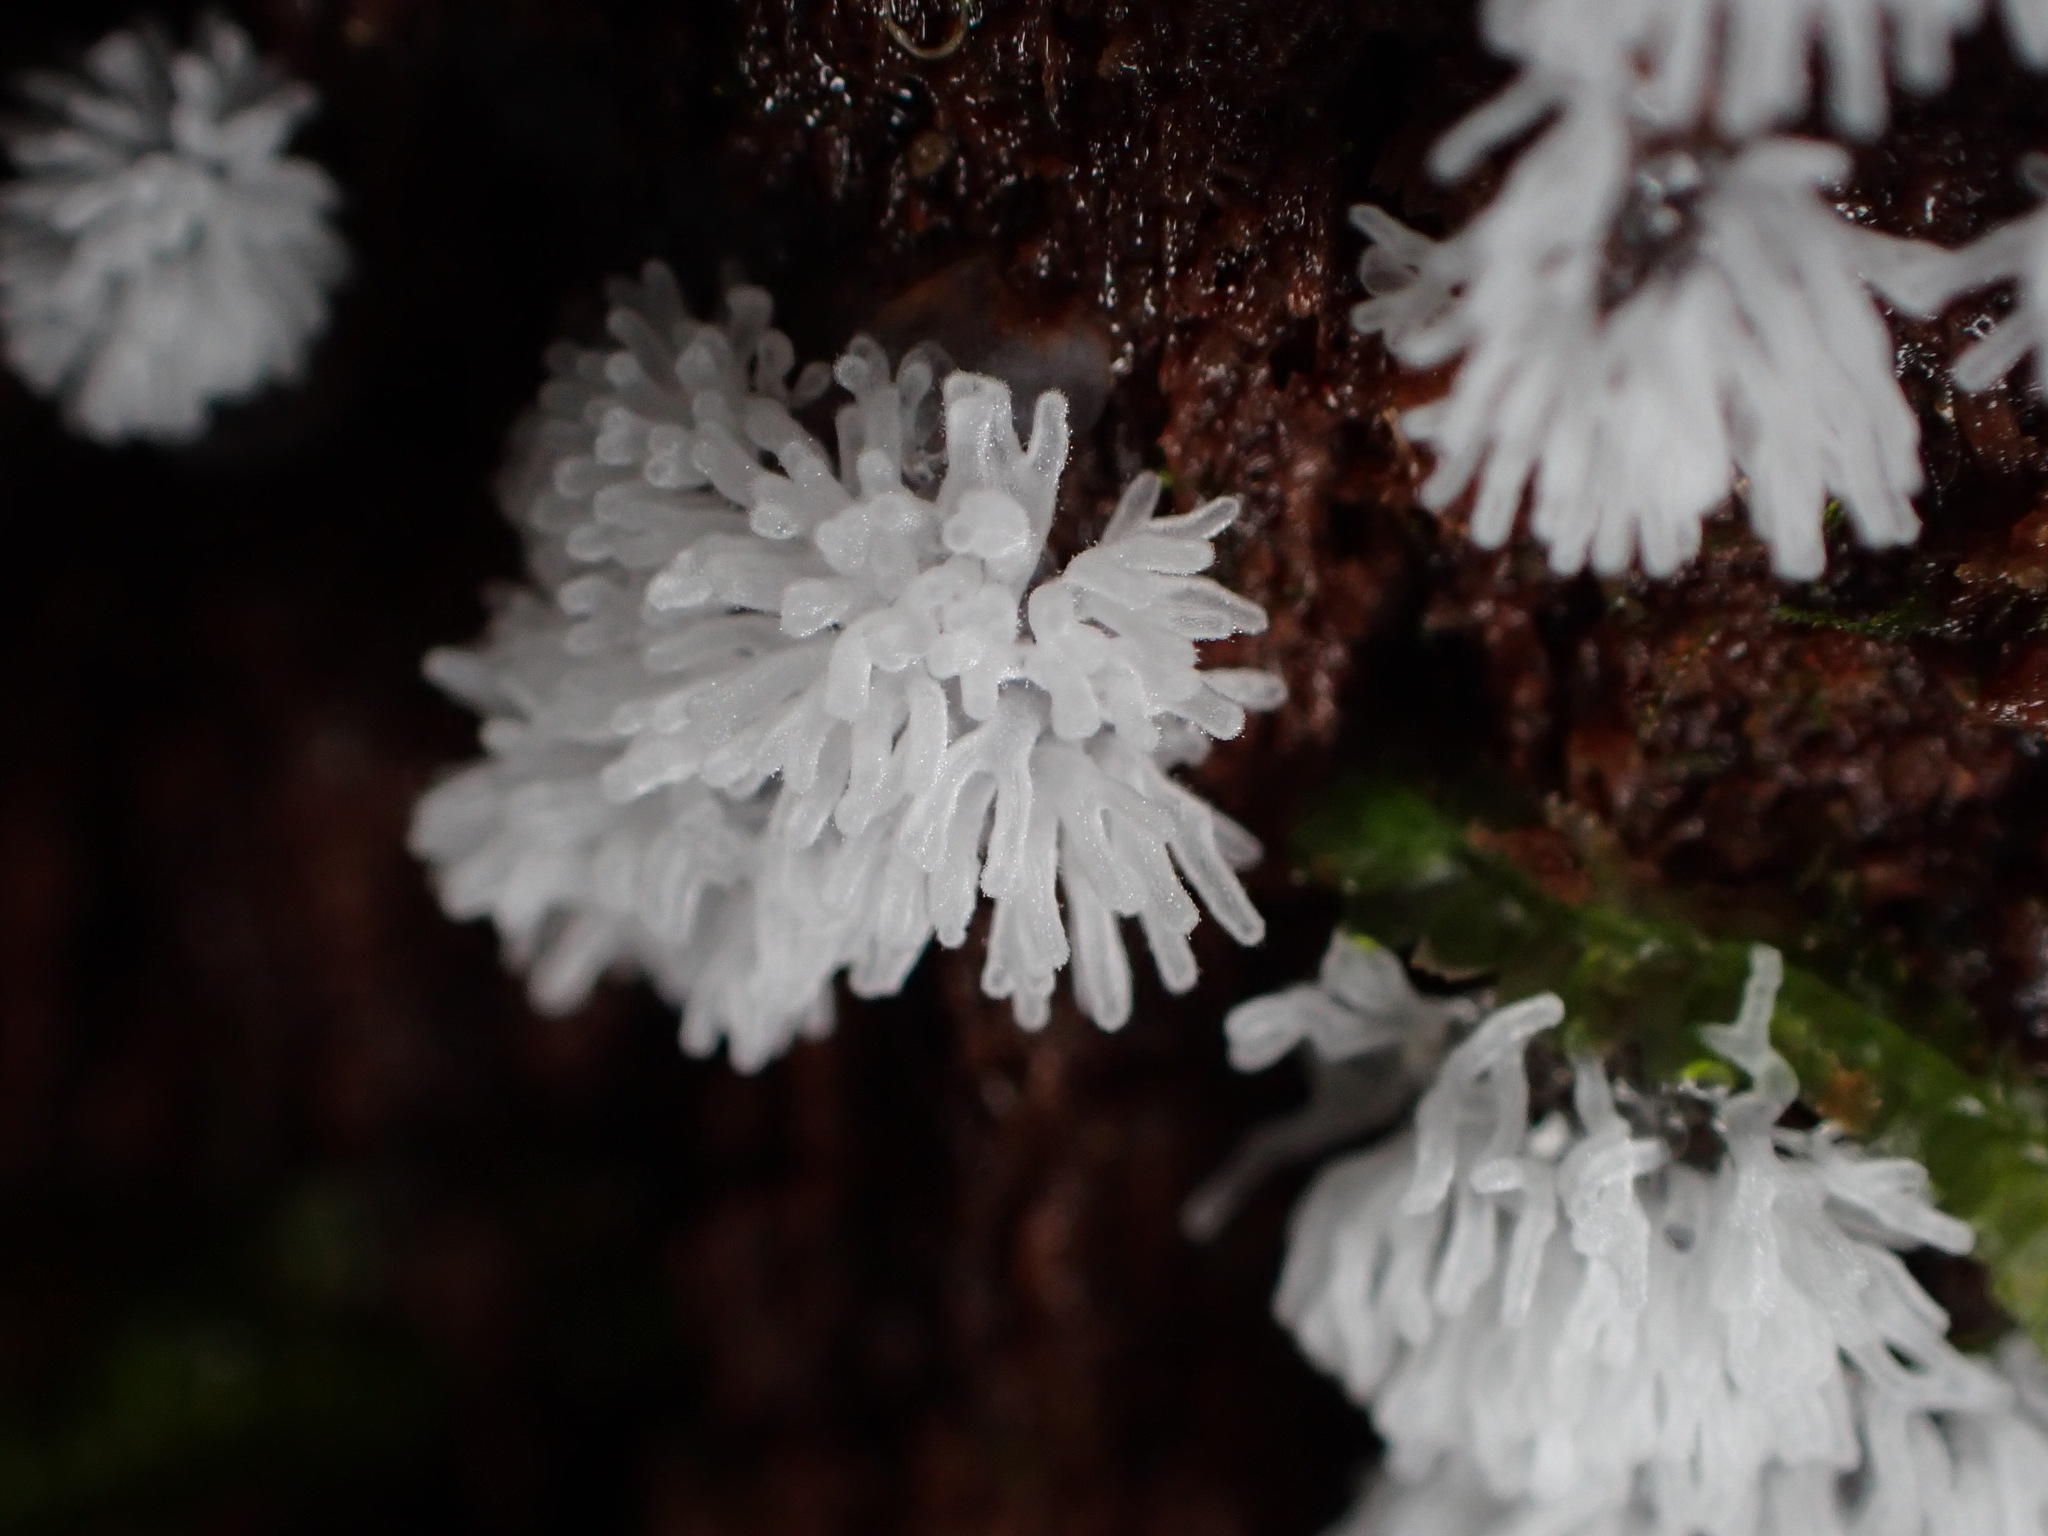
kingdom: Protozoa
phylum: Mycetozoa
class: Protosteliomycetes
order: Ceratiomyxales
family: Ceratiomyxaceae
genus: Ceratiomyxa
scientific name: Ceratiomyxa fruticulosa
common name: Honeycomb coral slime mold
